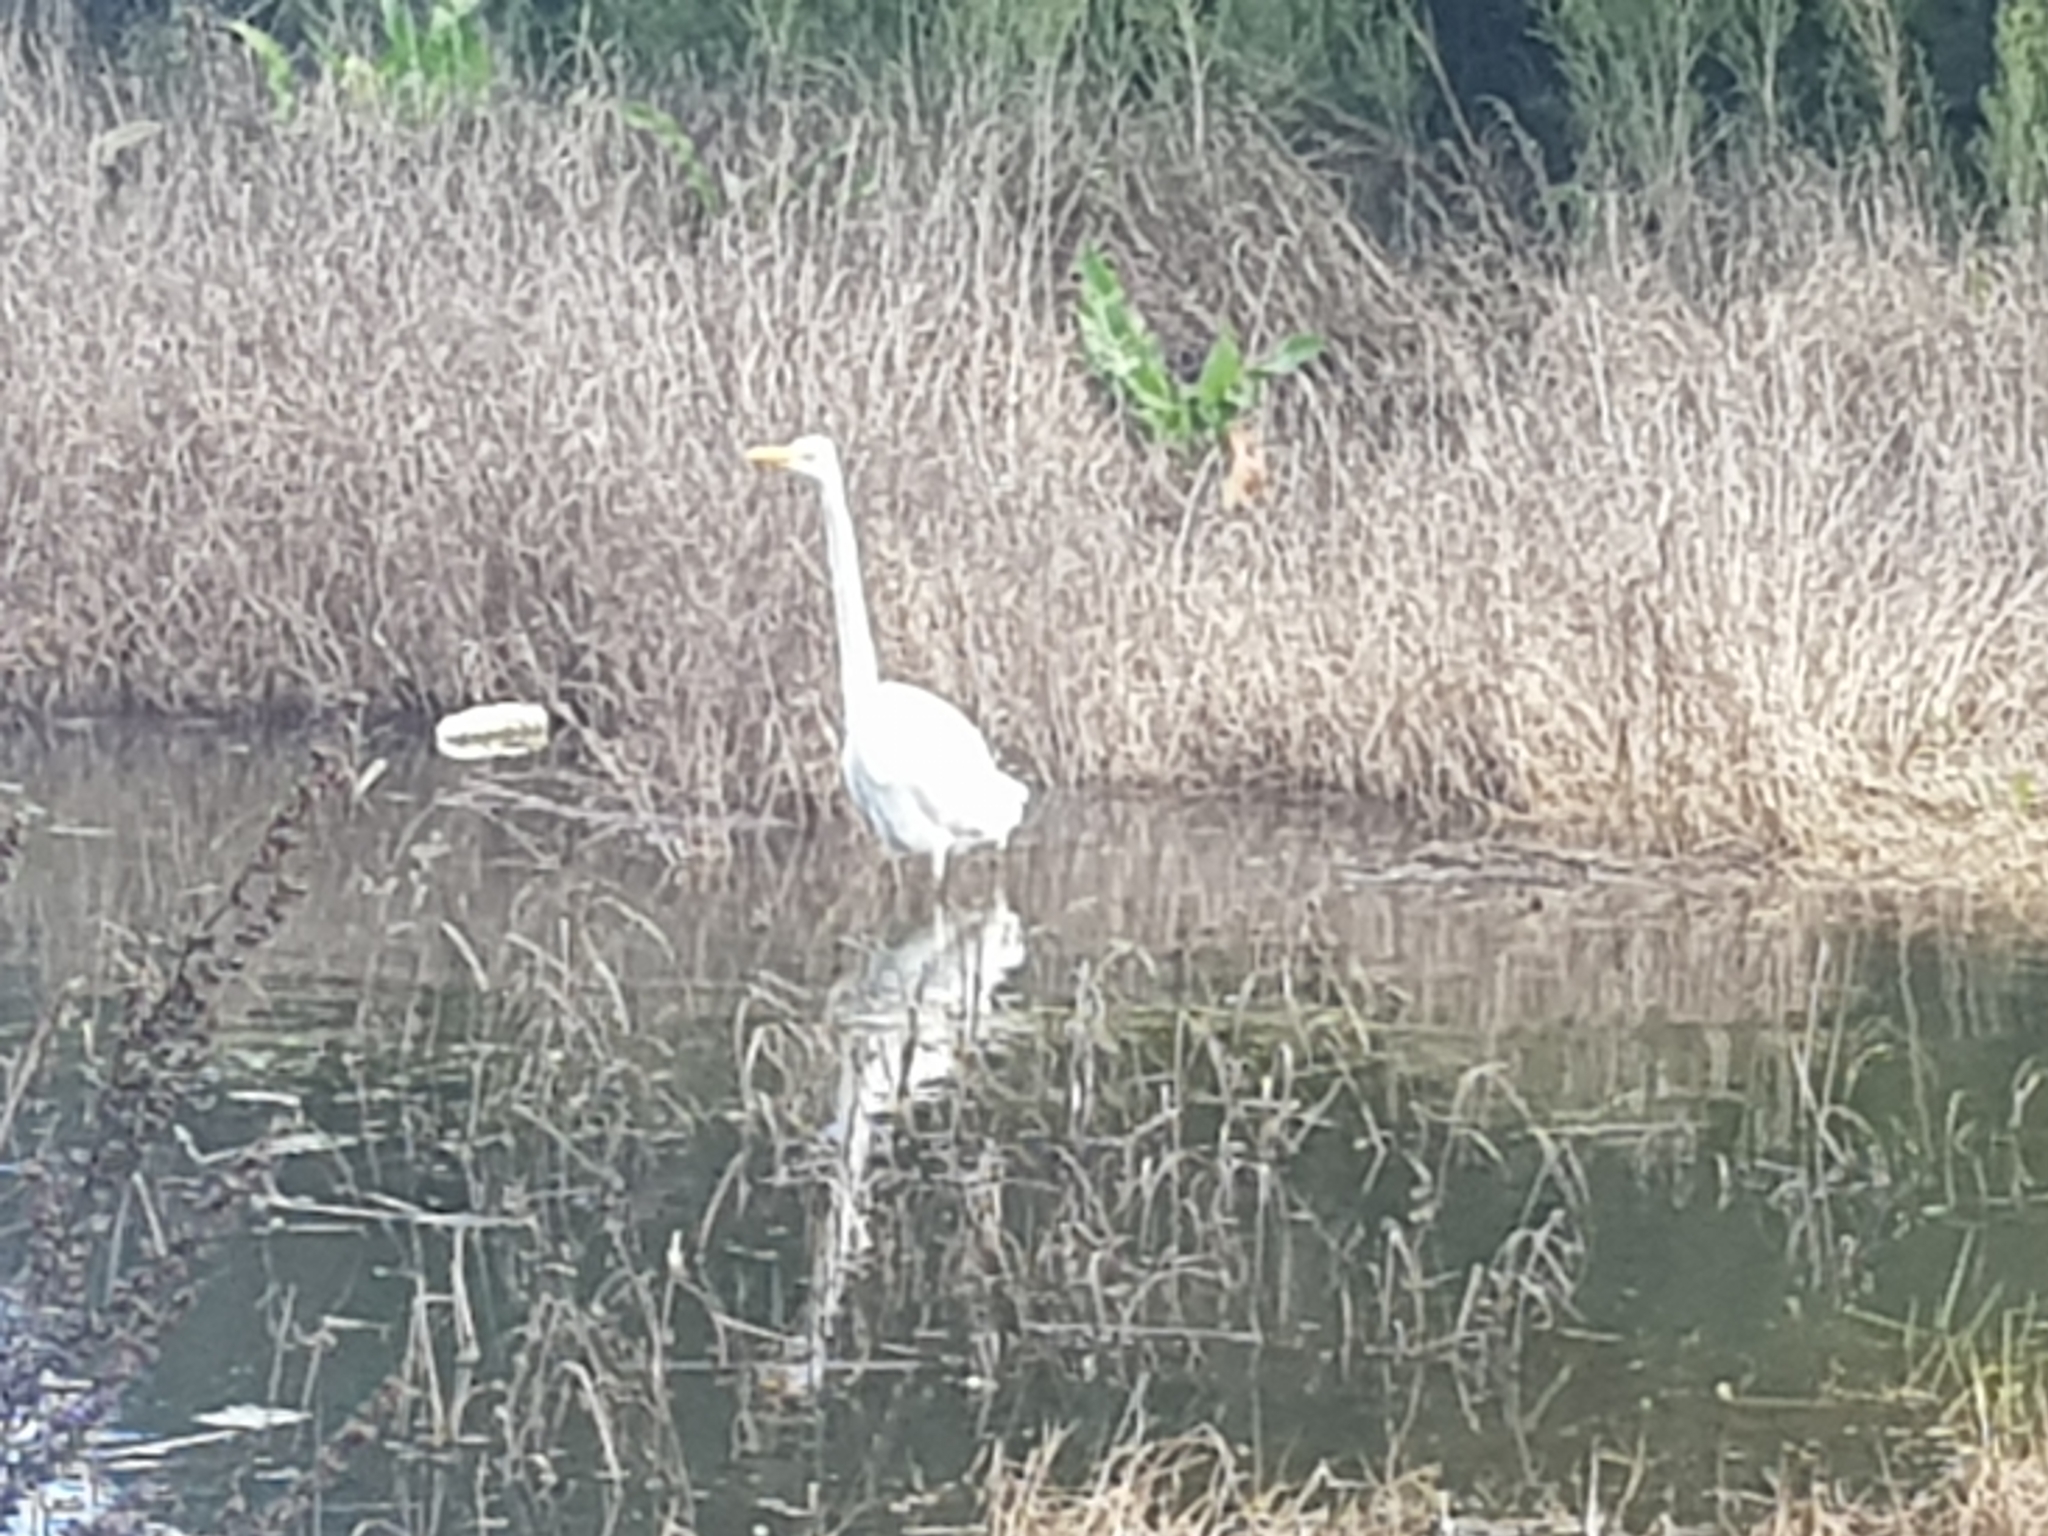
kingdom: Animalia
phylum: Chordata
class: Aves
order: Pelecaniformes
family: Ardeidae
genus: Ardea
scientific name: Ardea modesta
